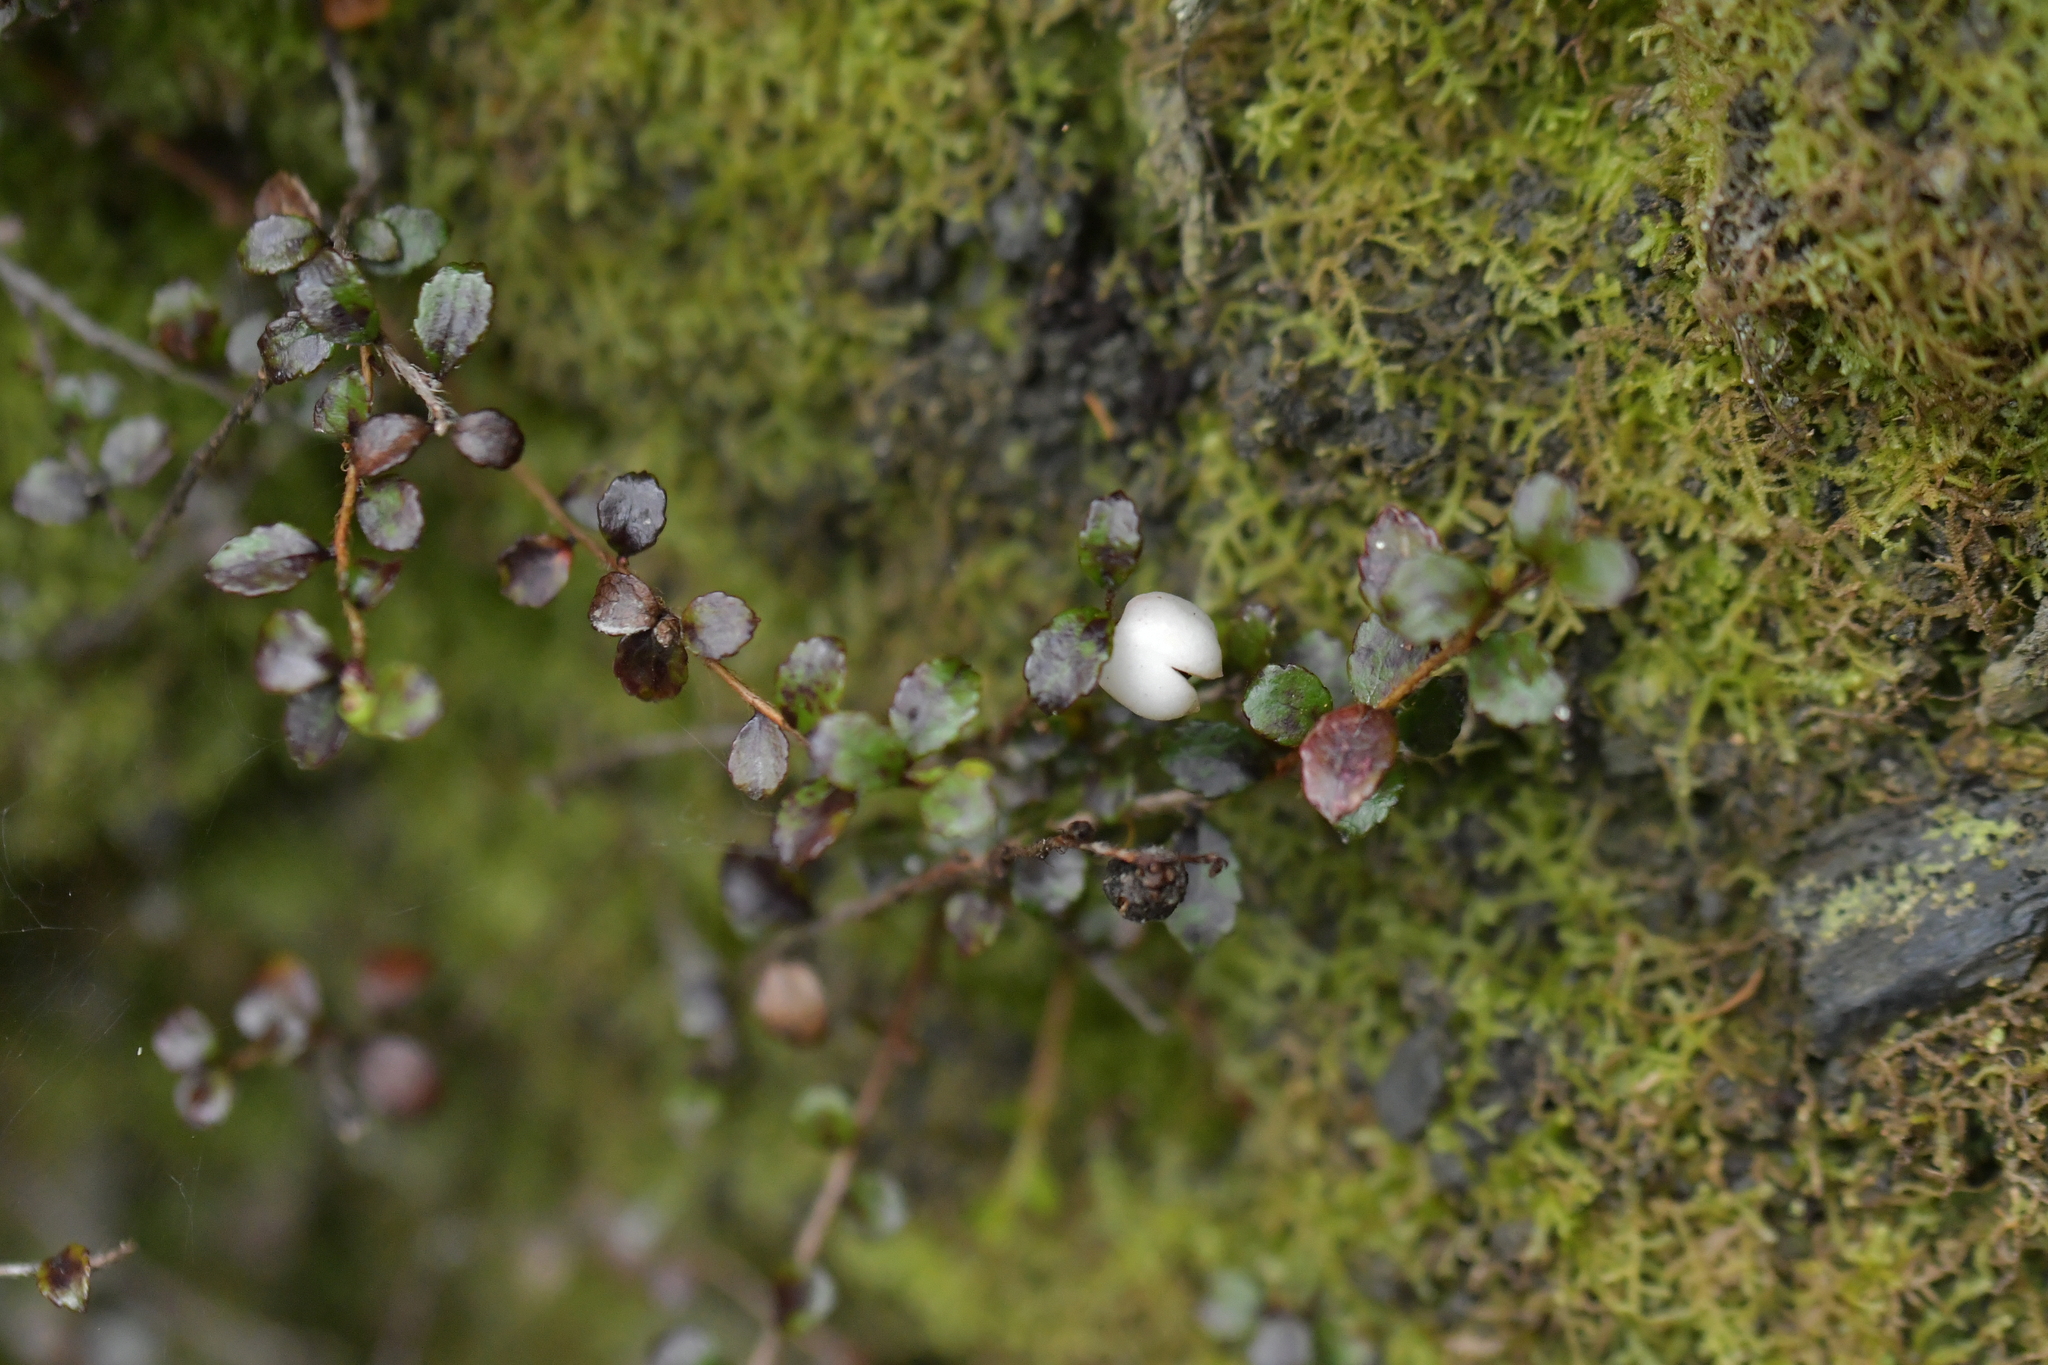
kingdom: Plantae
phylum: Tracheophyta
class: Magnoliopsida
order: Ericales
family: Ericaceae
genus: Gaultheria
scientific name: Gaultheria antipoda
